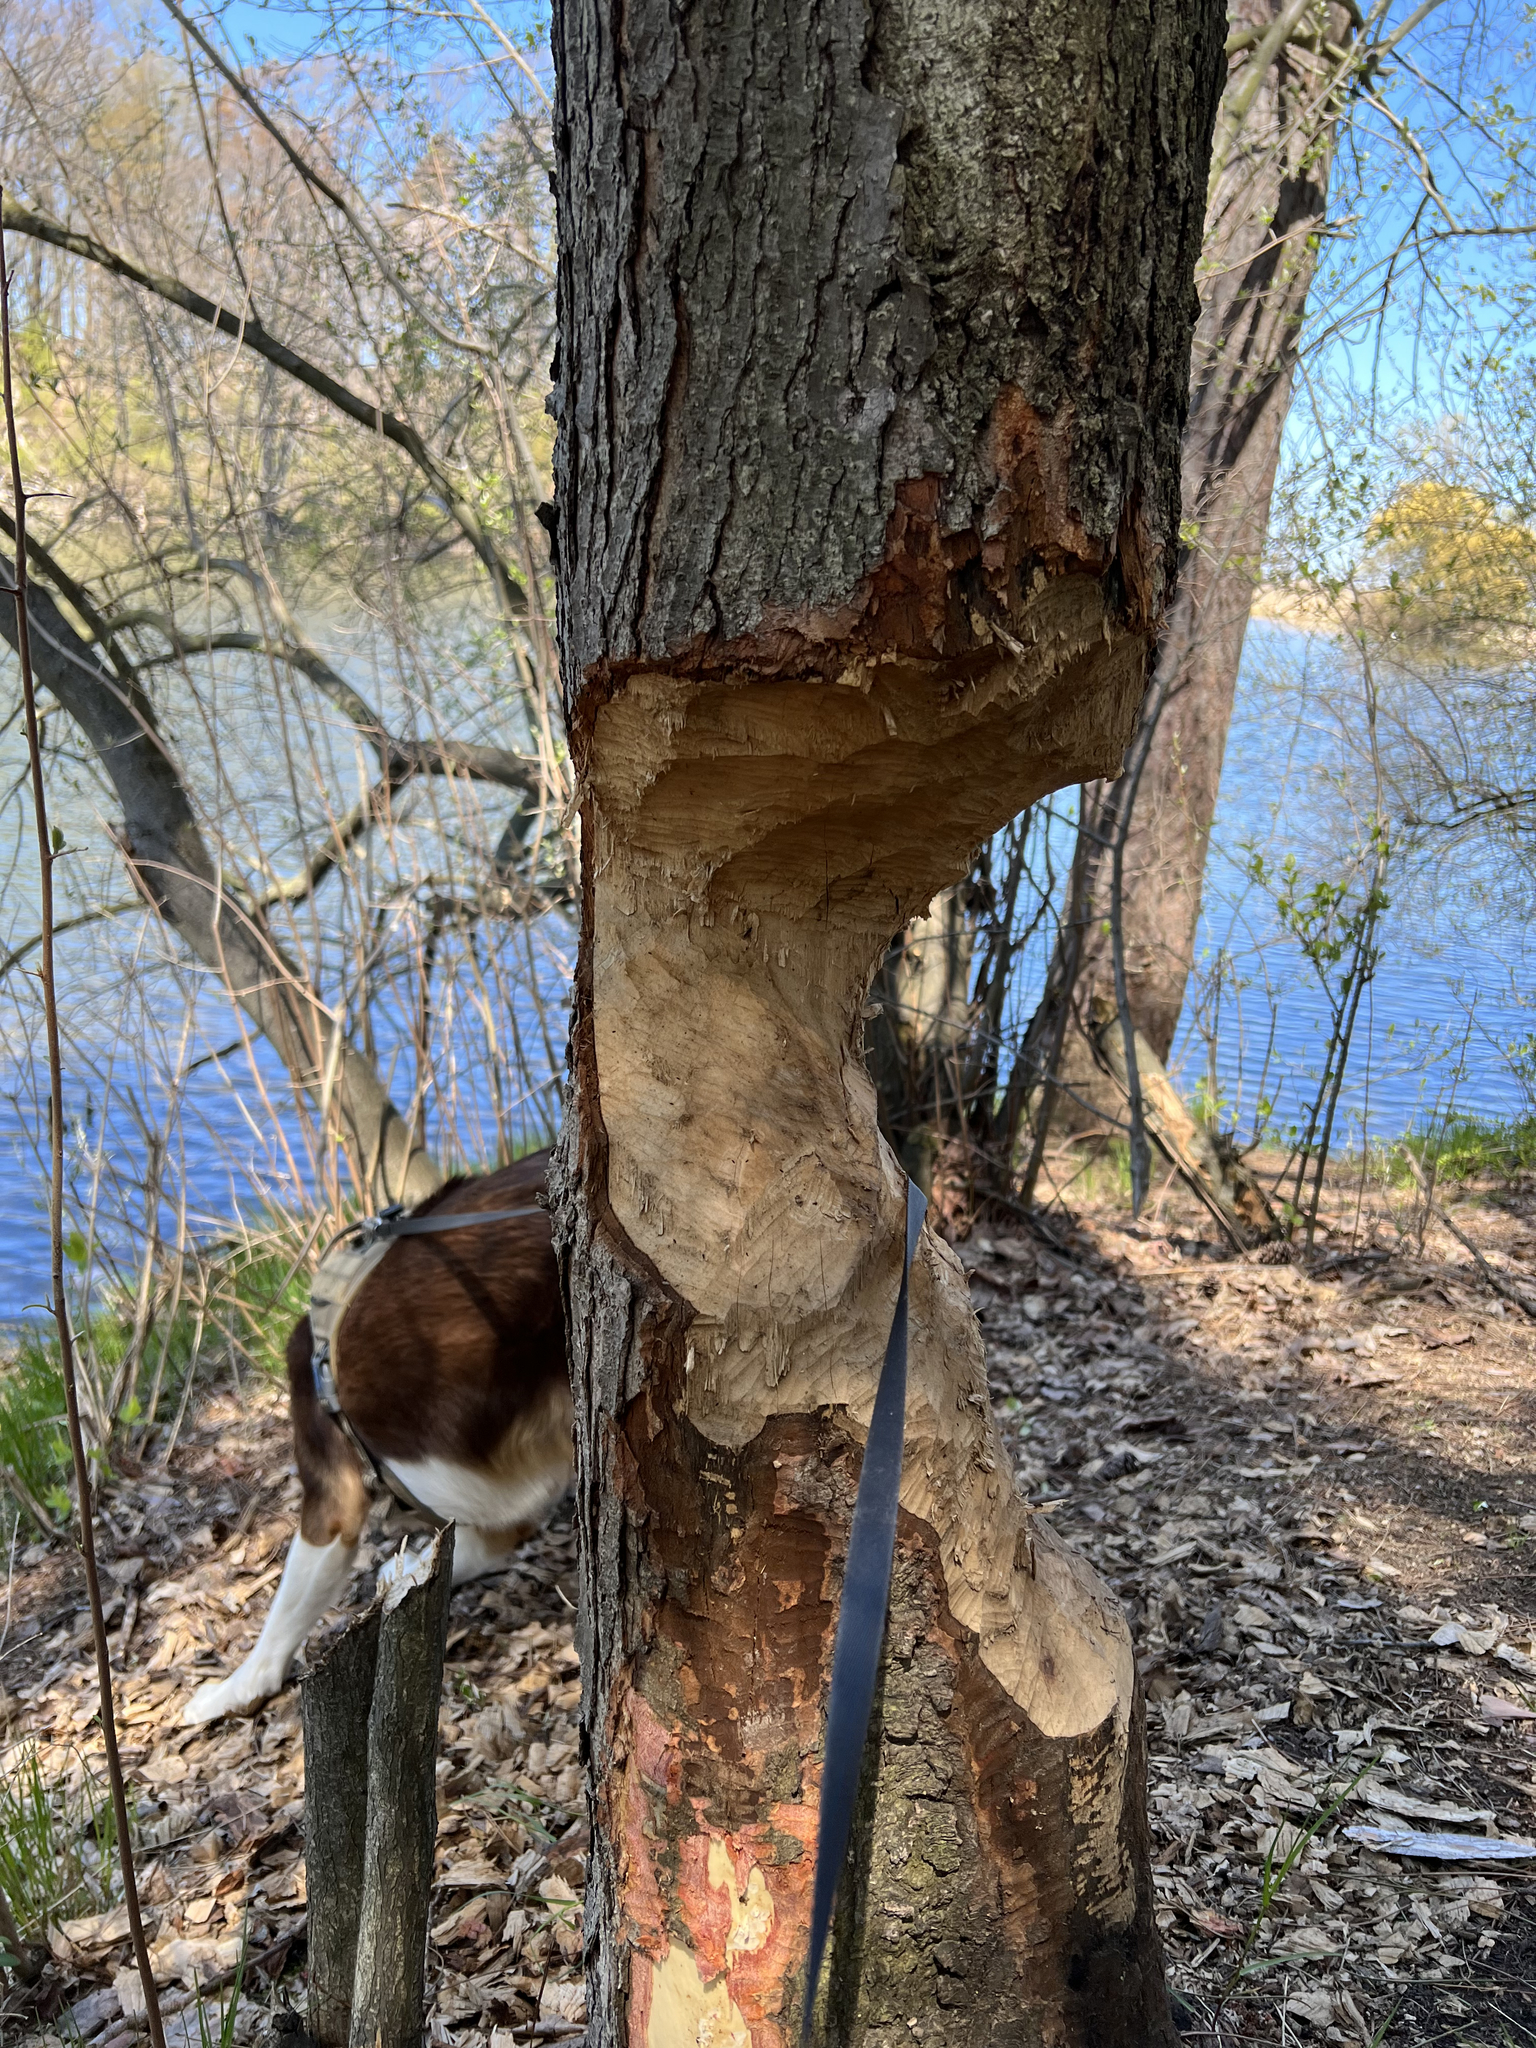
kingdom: Animalia
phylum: Chordata
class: Mammalia
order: Rodentia
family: Castoridae
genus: Castor
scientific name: Castor canadensis
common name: American beaver
